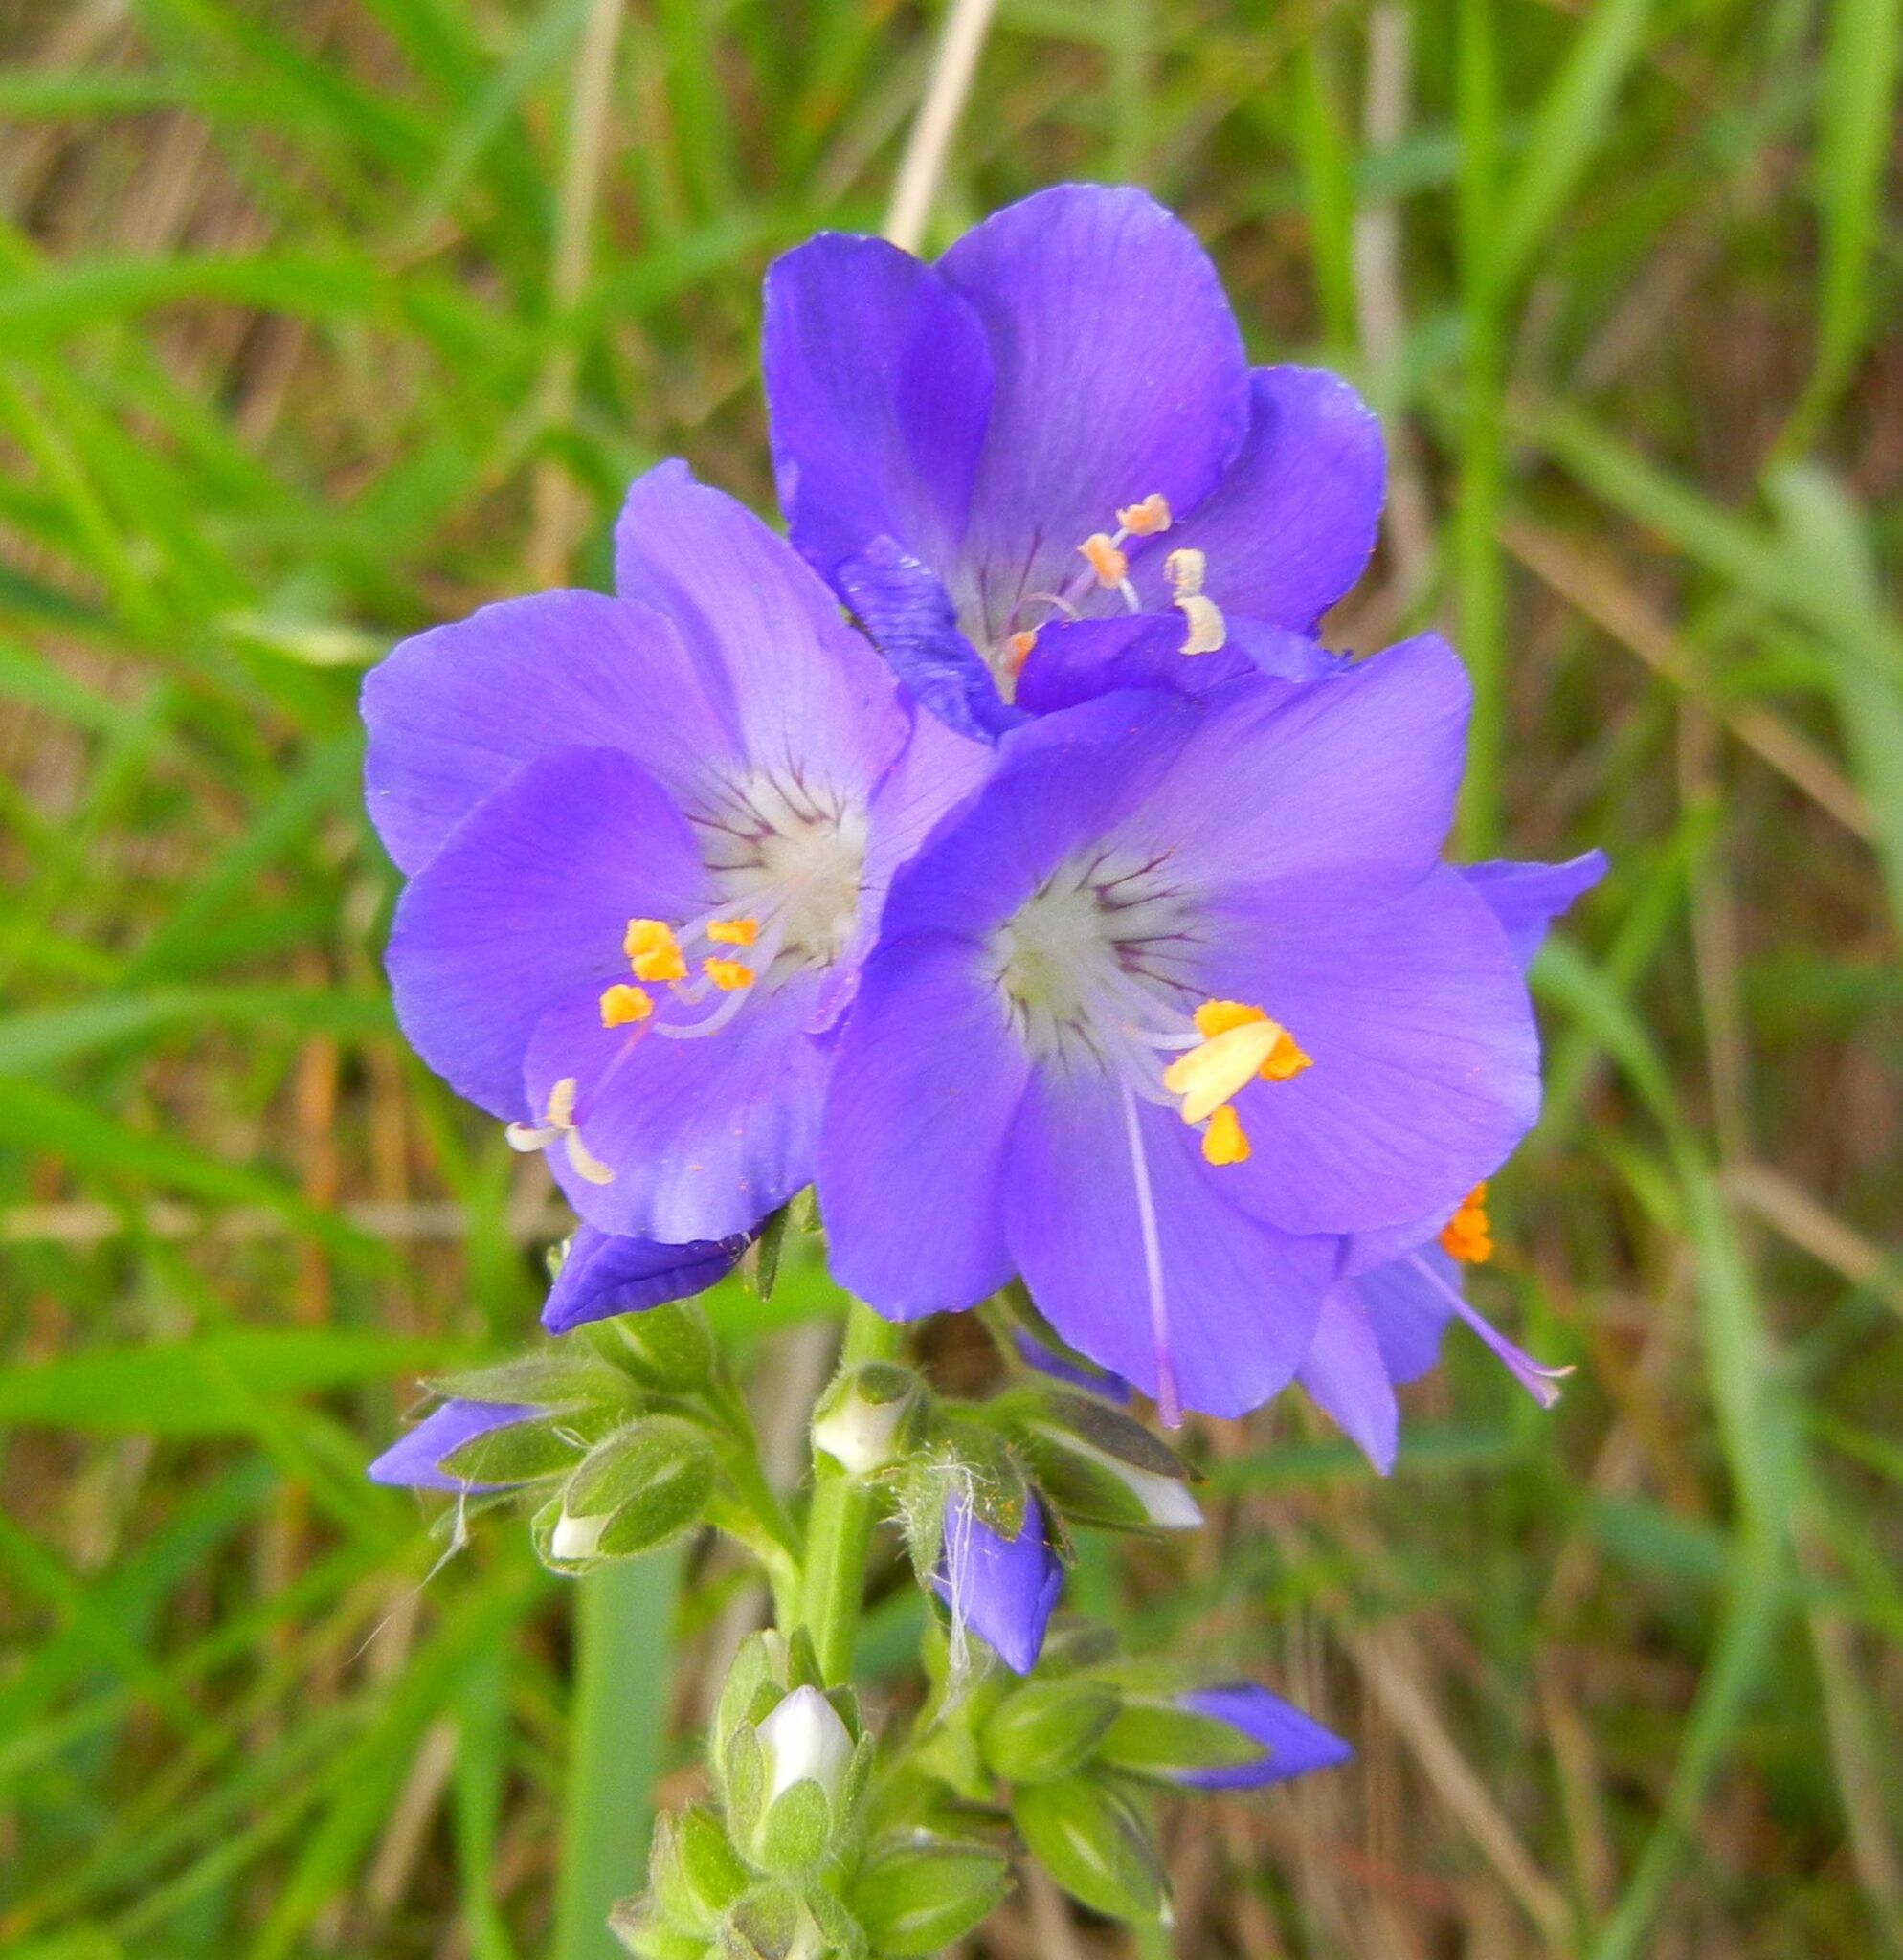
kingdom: Plantae
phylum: Tracheophyta
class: Magnoliopsida
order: Ericales
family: Polemoniaceae
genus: Polemonium
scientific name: Polemonium caeruleum
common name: Jacob's-ladder
